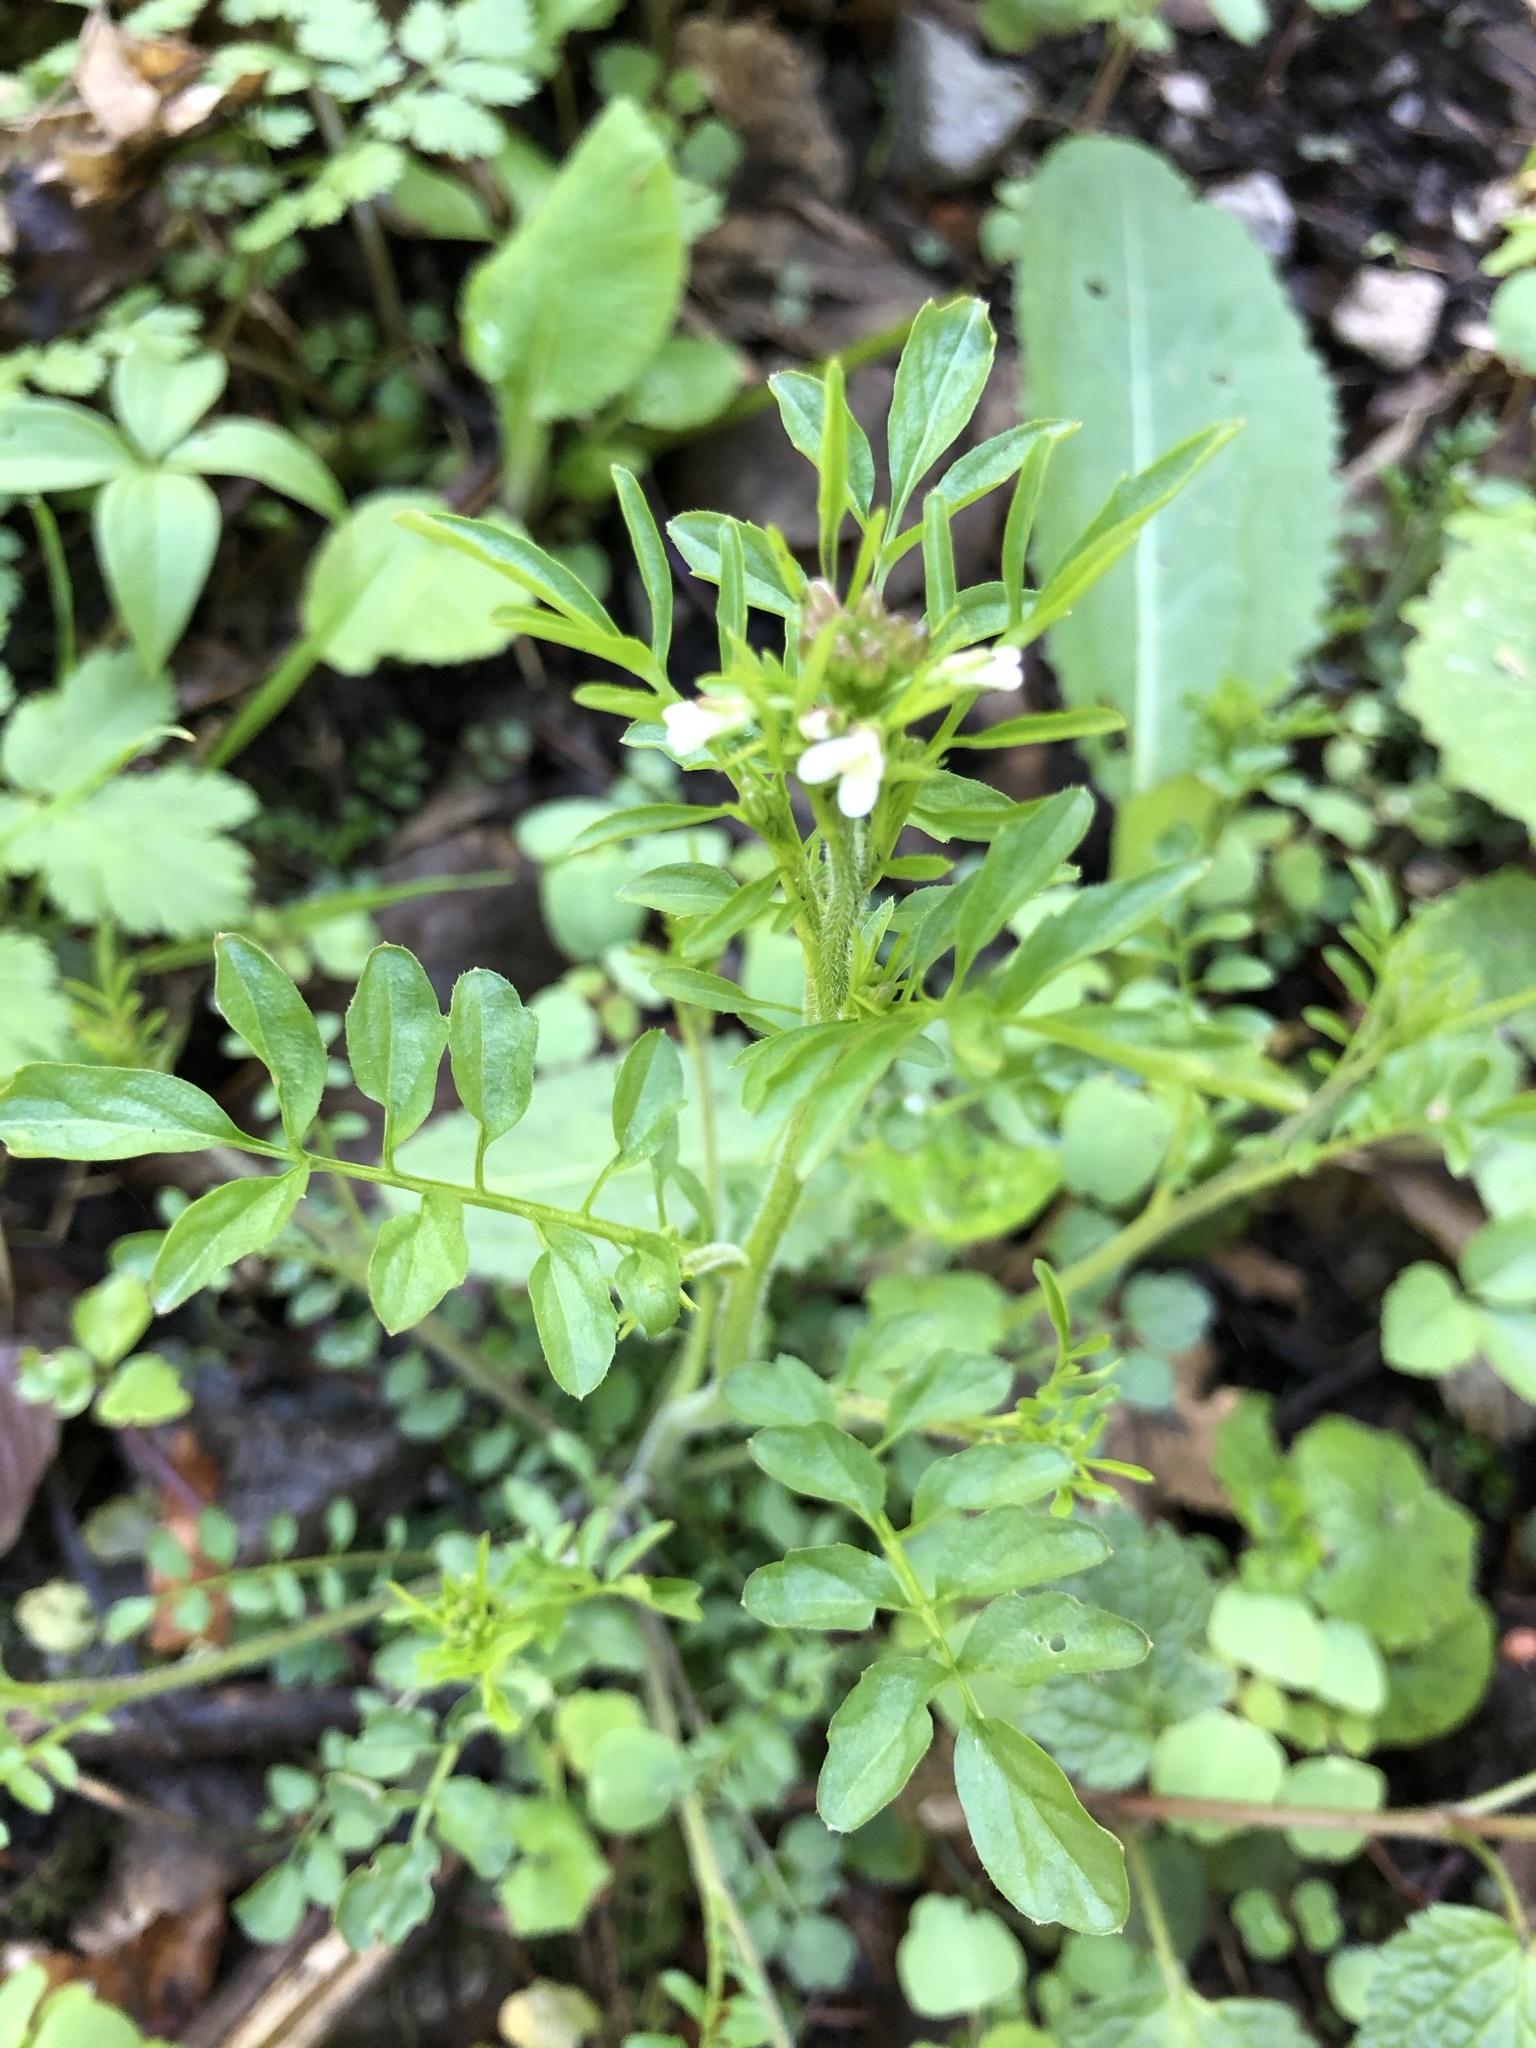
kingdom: Plantae
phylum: Tracheophyta
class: Magnoliopsida
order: Brassicales
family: Brassicaceae
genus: Cardamine
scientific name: Cardamine flexuosa
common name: Woodland bittercress
